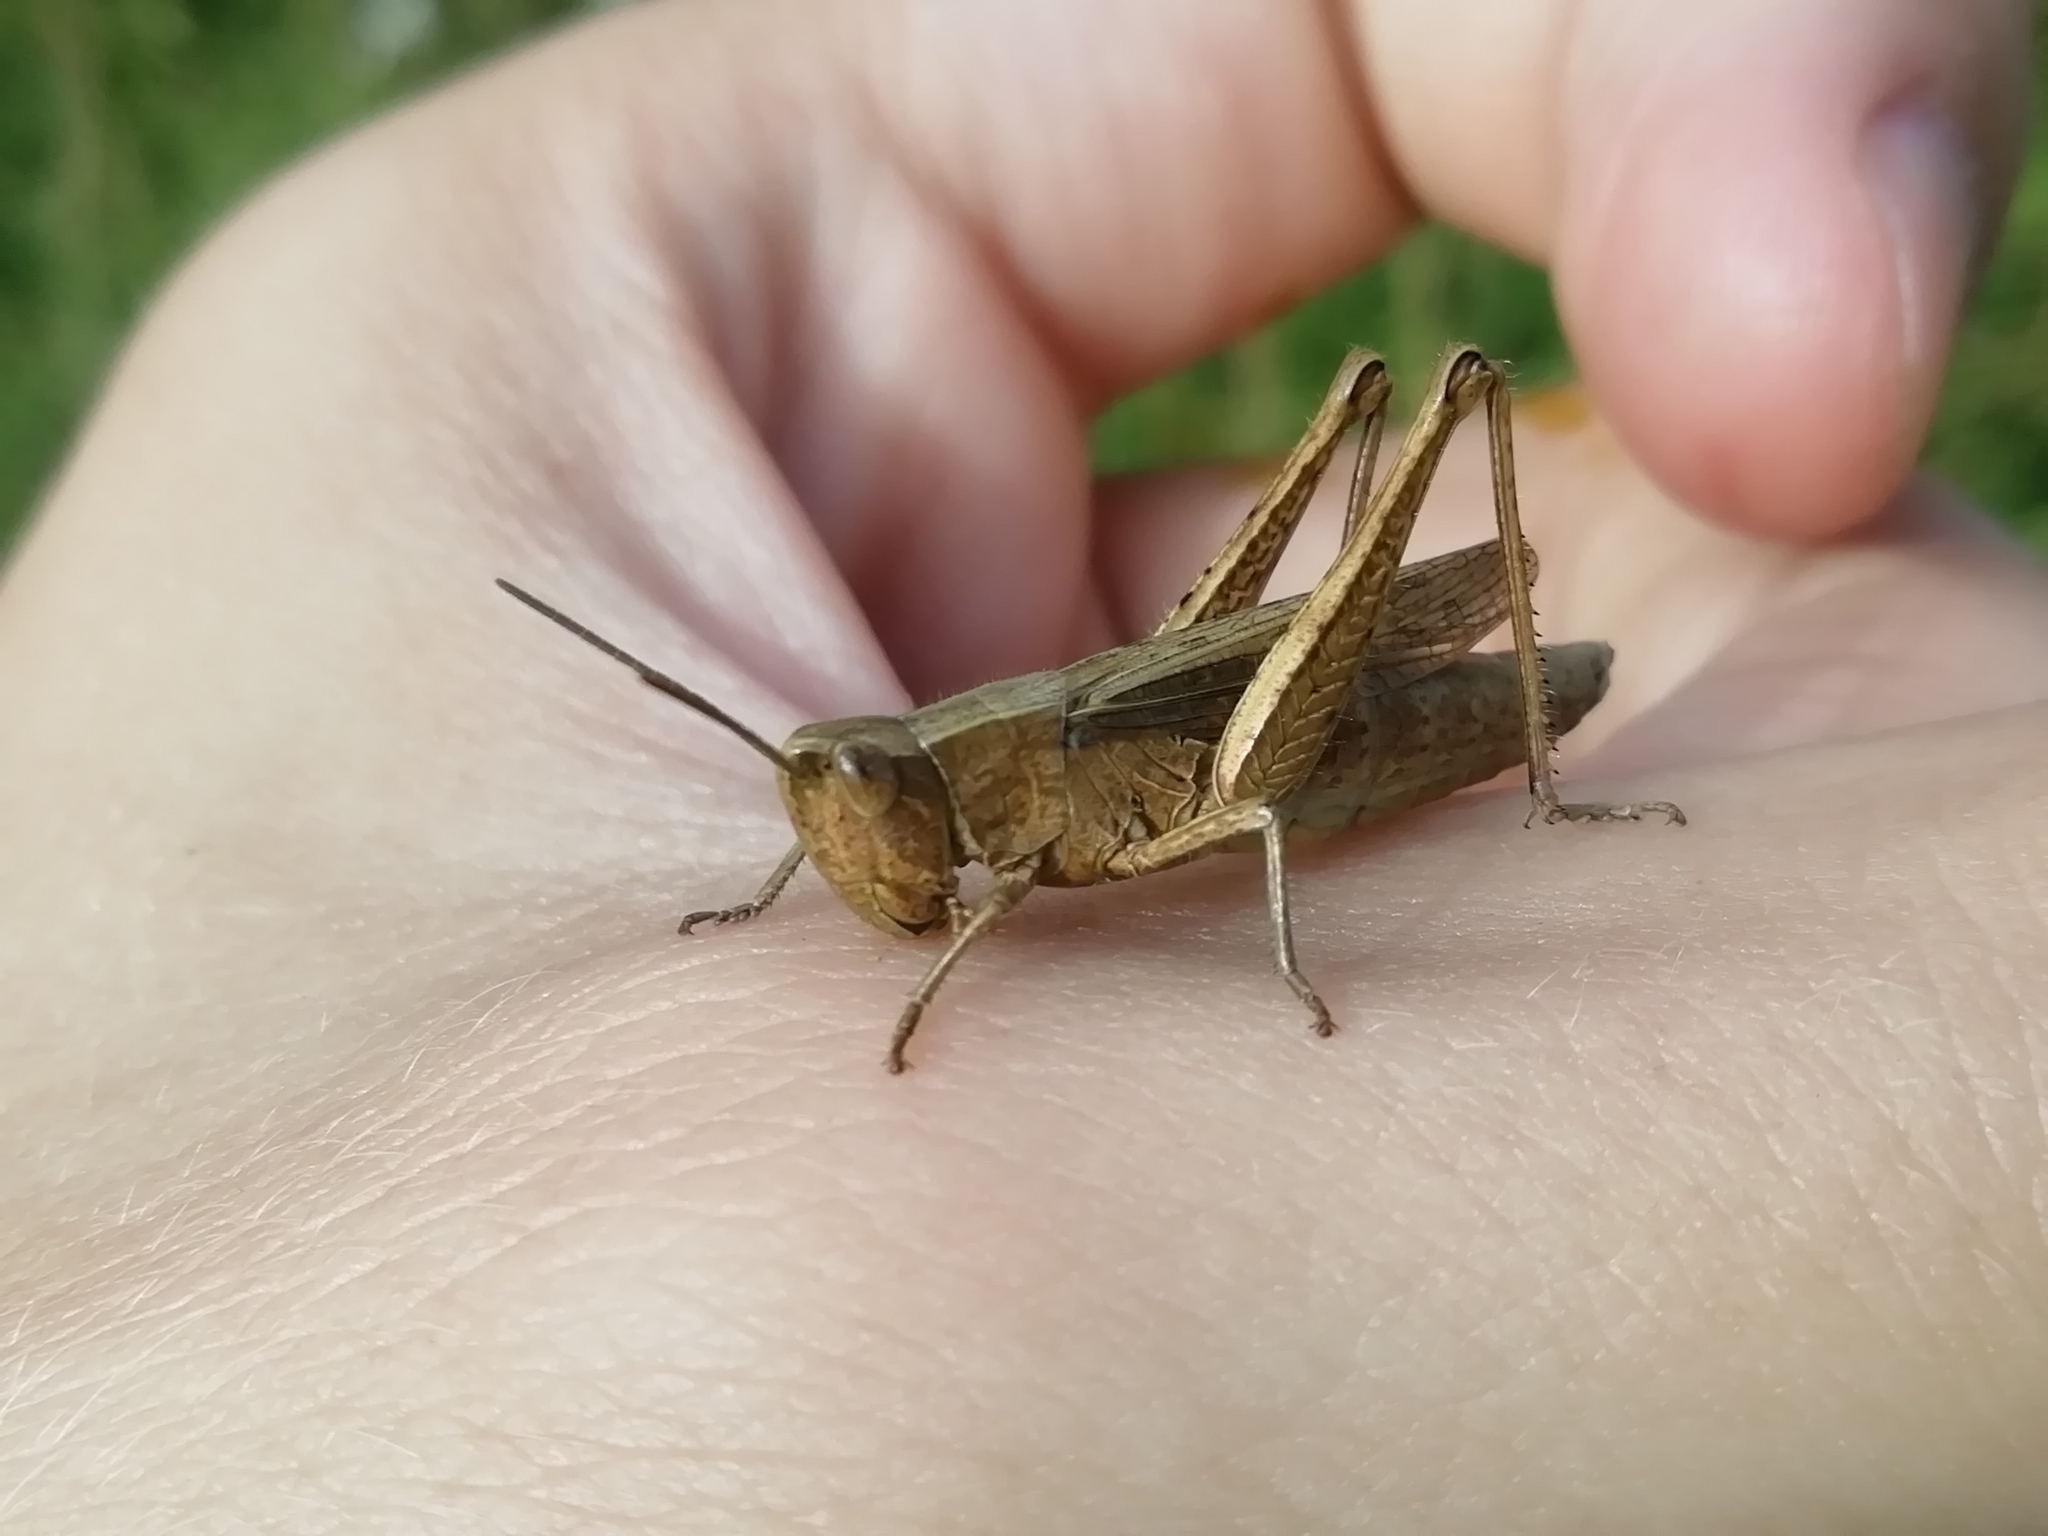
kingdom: Animalia
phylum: Arthropoda
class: Insecta
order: Orthoptera
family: Acrididae
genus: Chorthippus
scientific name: Chorthippus dorsatus
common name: Steppe grasshopper
